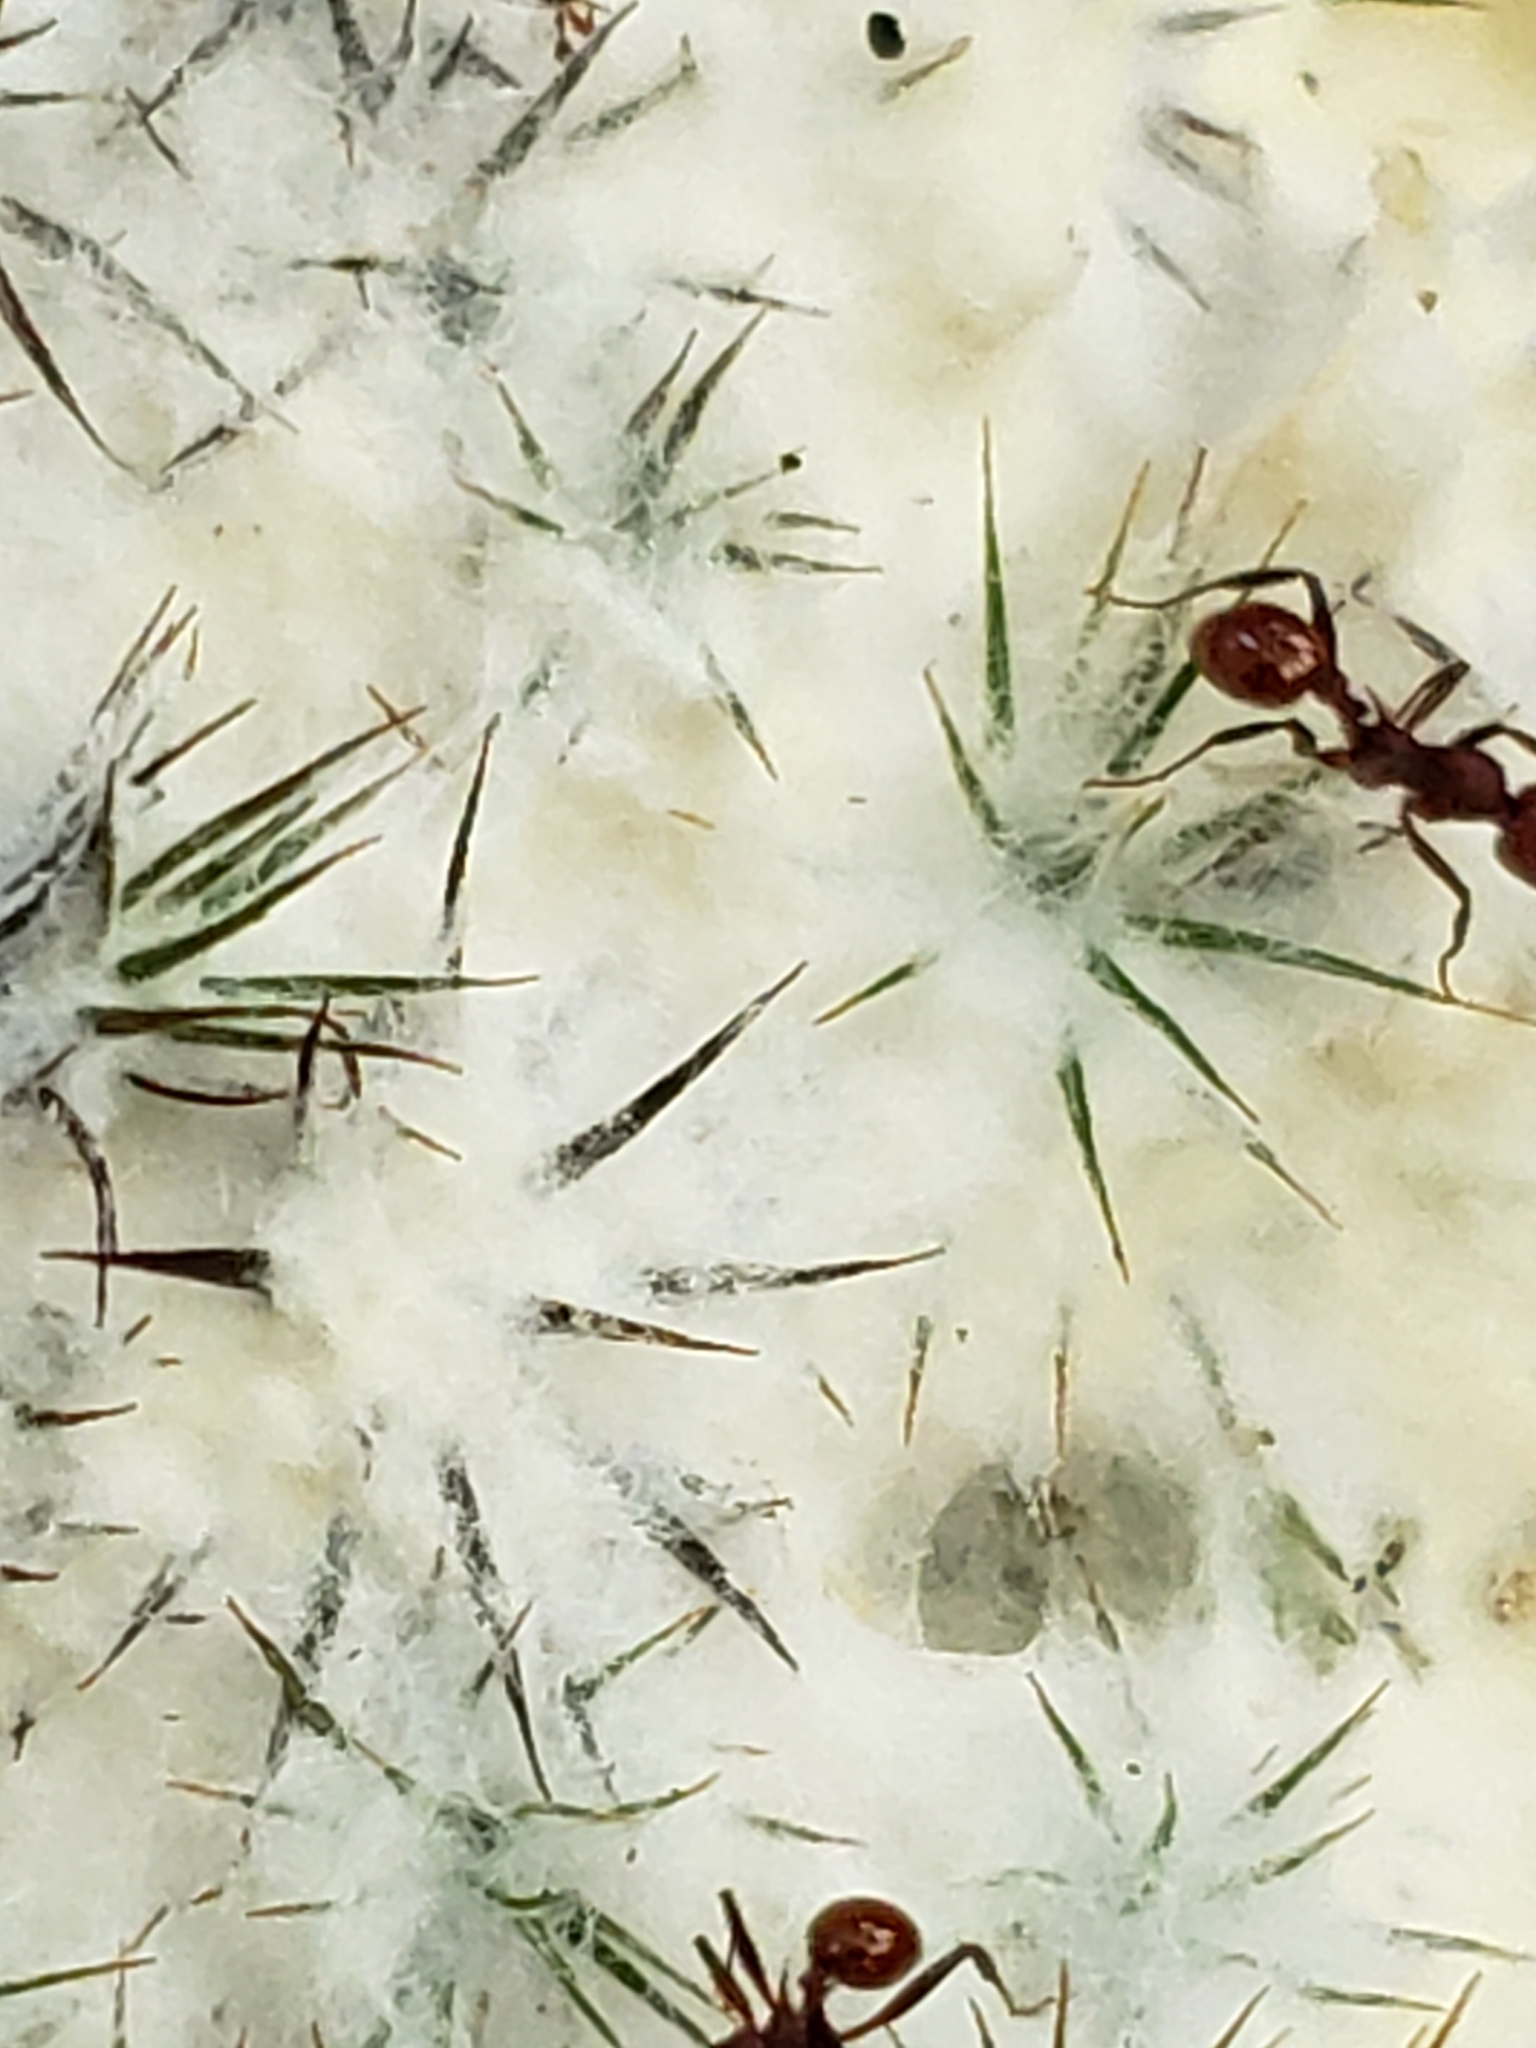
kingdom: Animalia
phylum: Arthropoda
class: Insecta
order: Hymenoptera
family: Formicidae
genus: Aphaenogaster
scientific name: Aphaenogaster tennesseensis
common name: Tennessee thread-waisted ant
